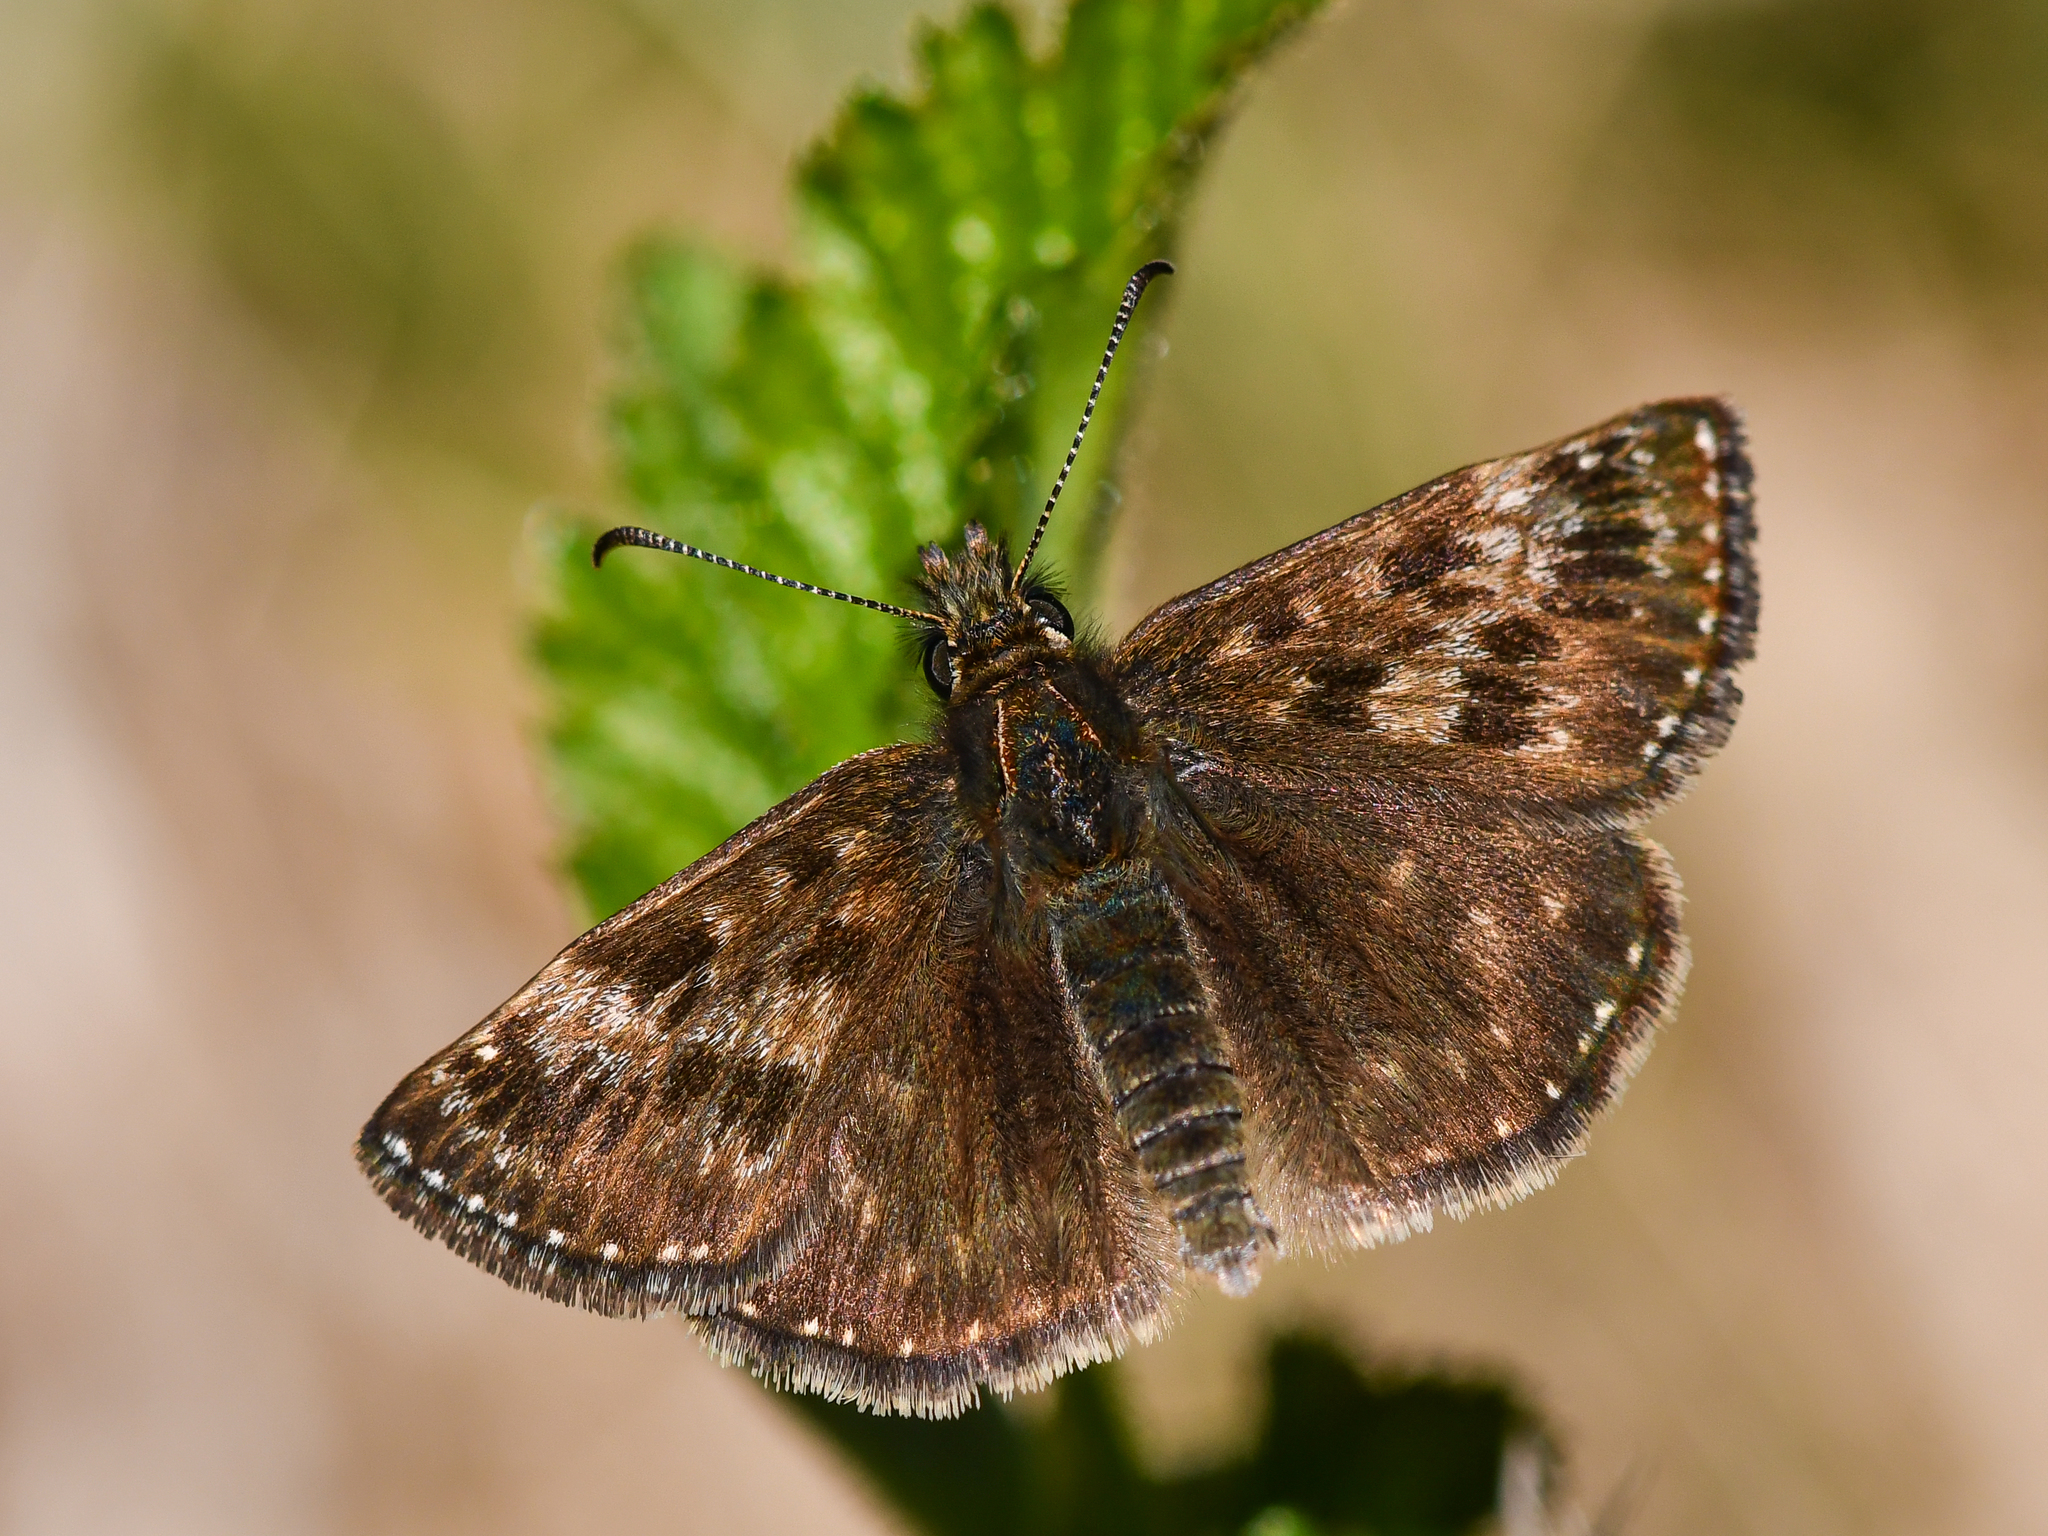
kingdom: Animalia
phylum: Arthropoda
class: Insecta
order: Lepidoptera
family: Hesperiidae
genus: Erynnis
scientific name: Erynnis tages
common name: Dingy skipper
